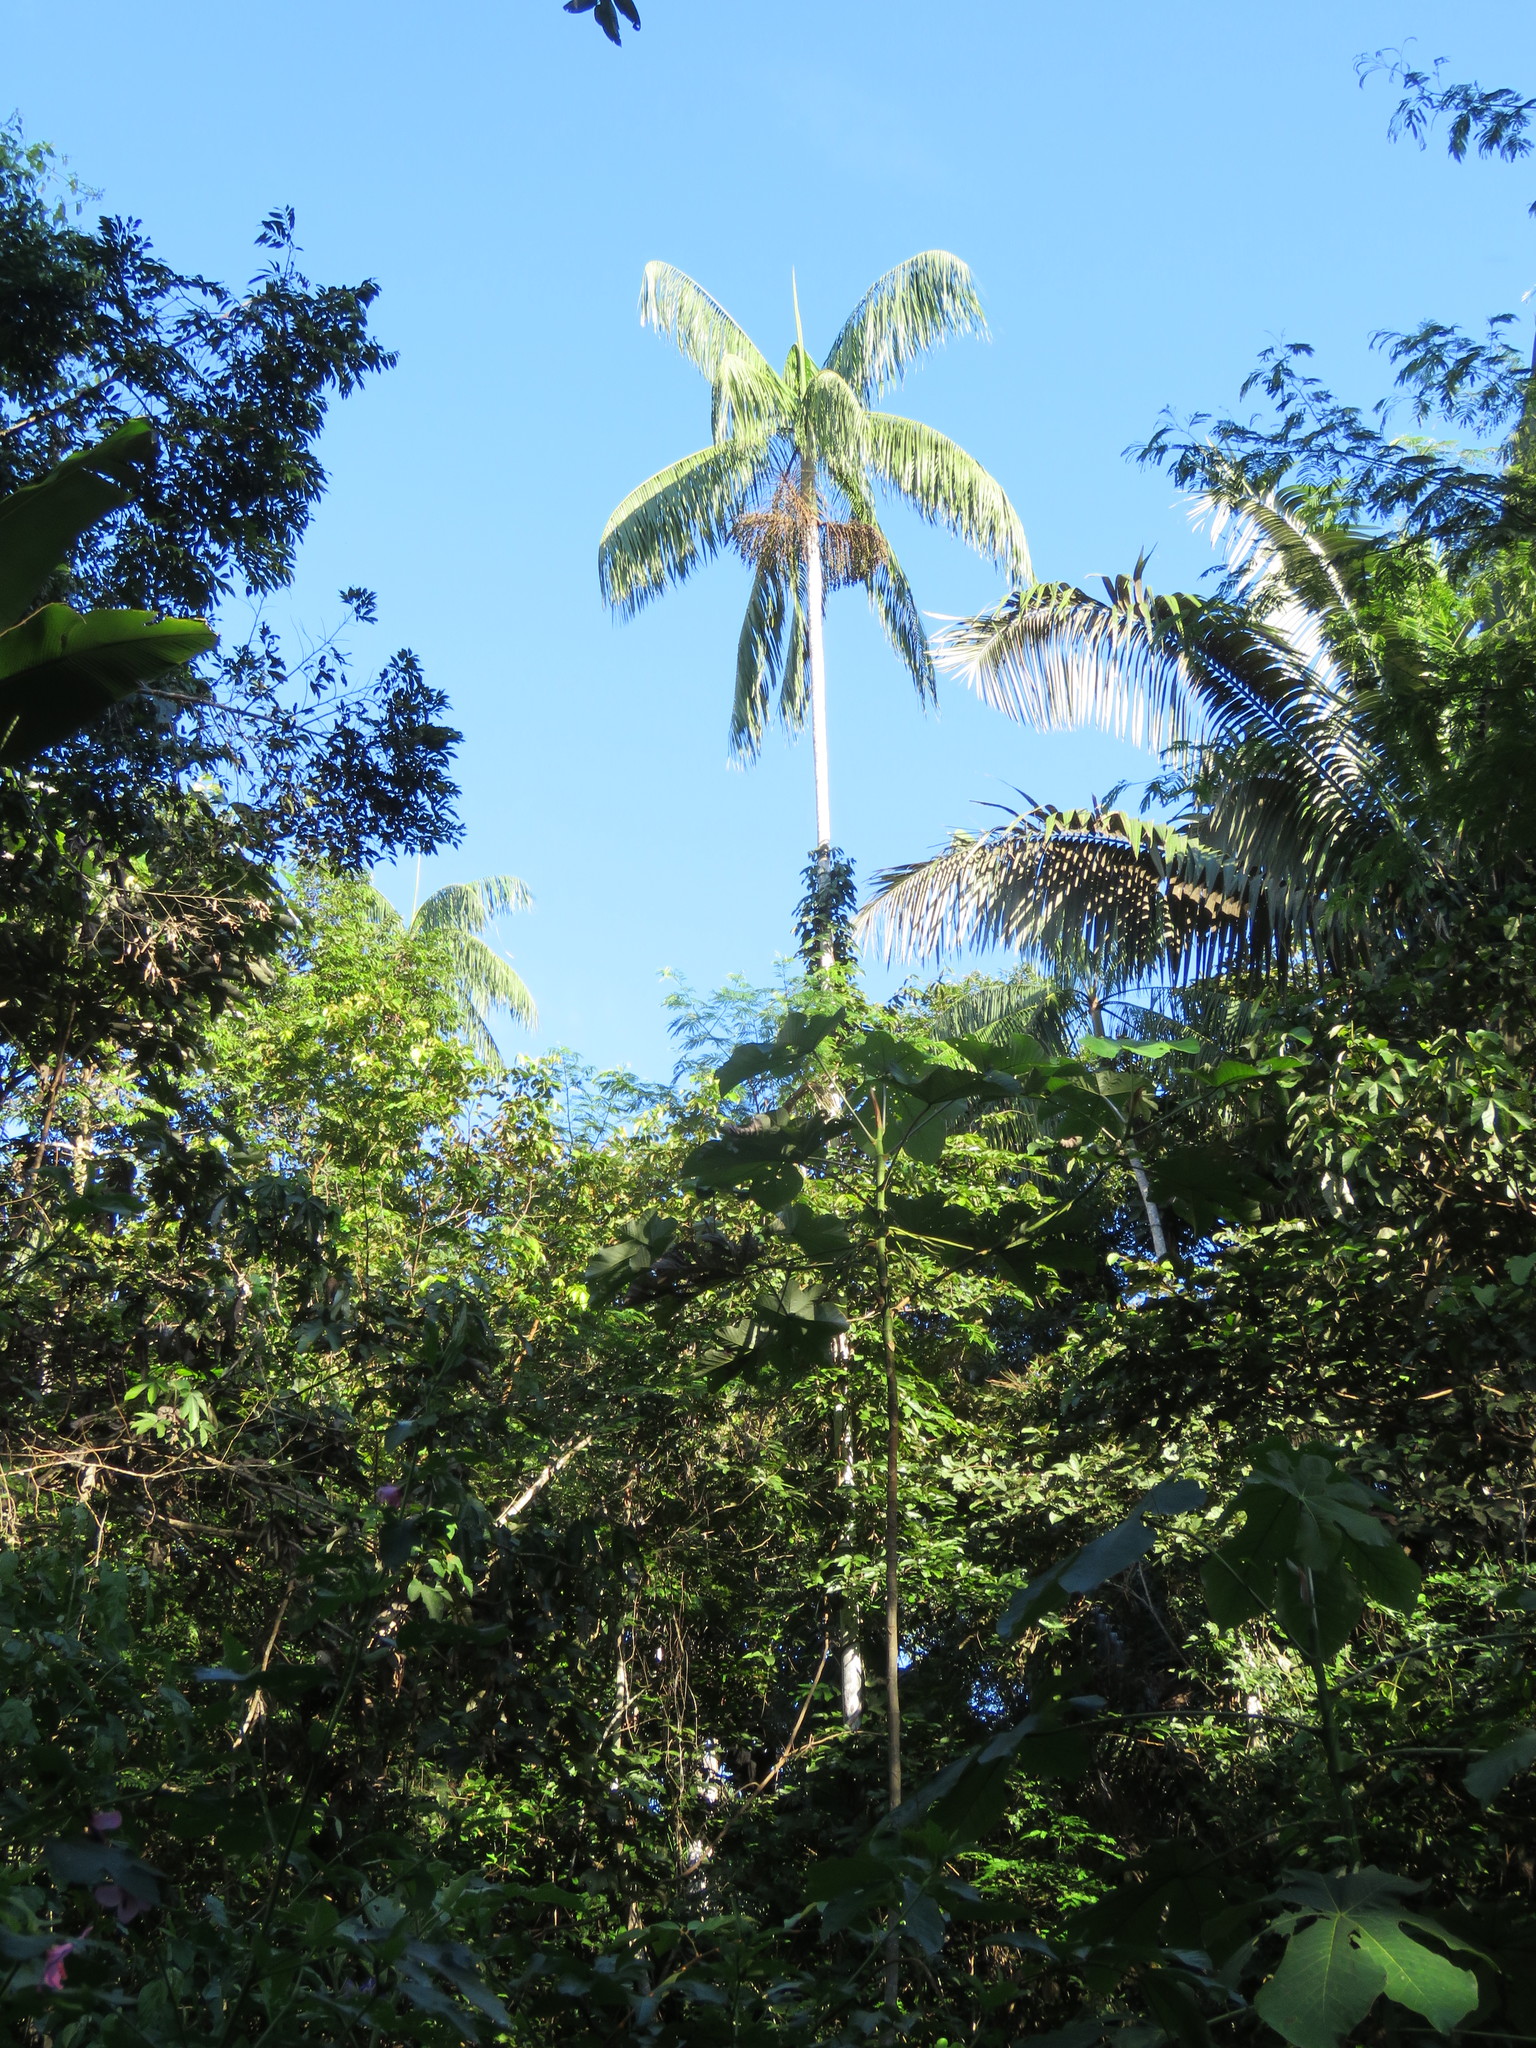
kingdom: Plantae
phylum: Tracheophyta
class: Liliopsida
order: Arecales
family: Arecaceae
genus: Euterpe
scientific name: Euterpe precatoria
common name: Mountain-cabbage
